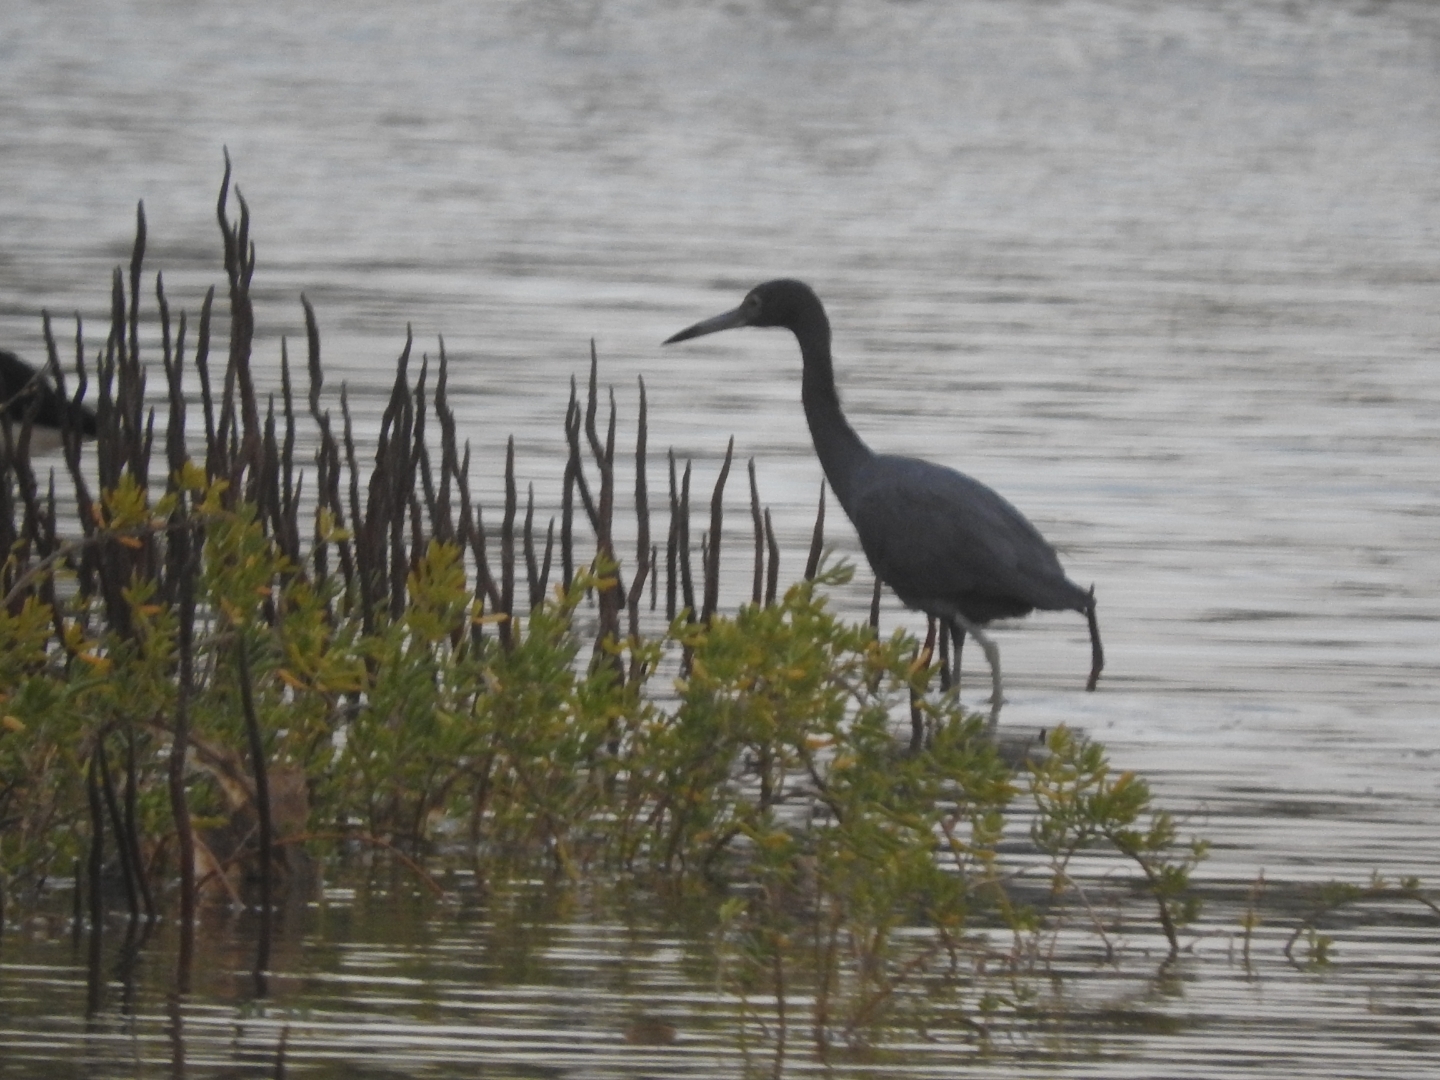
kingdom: Animalia
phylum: Chordata
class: Aves
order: Pelecaniformes
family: Ardeidae
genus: Egretta
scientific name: Egretta caerulea
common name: Little blue heron
